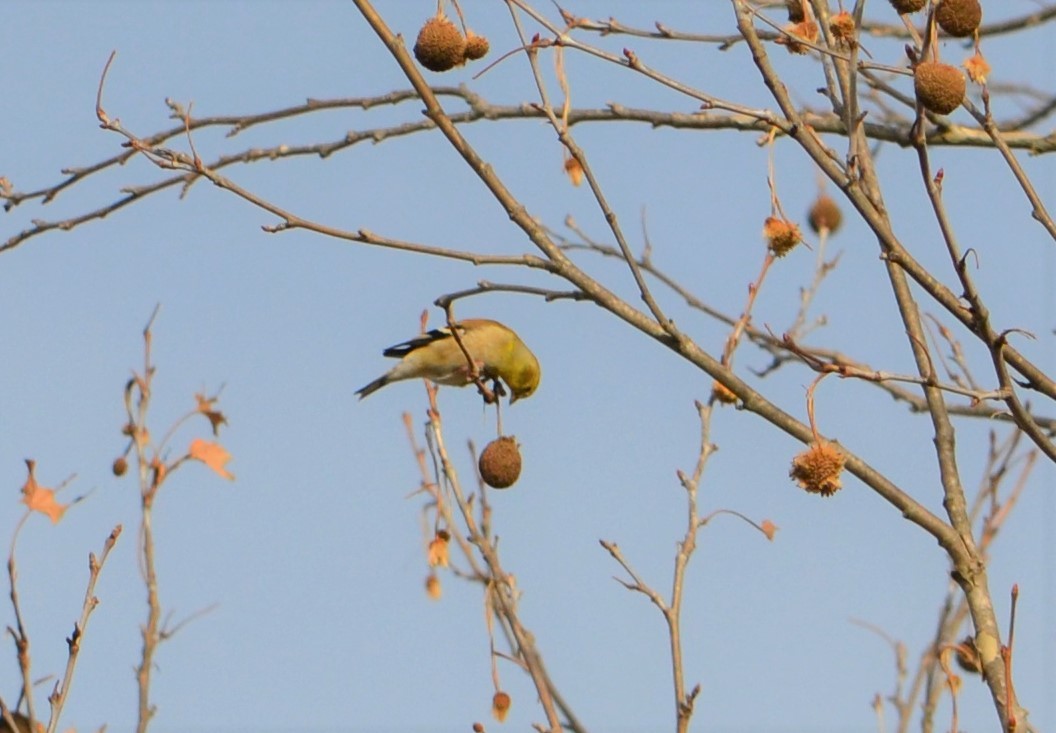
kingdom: Animalia
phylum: Chordata
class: Aves
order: Passeriformes
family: Fringillidae
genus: Spinus
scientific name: Spinus tristis
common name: American goldfinch
